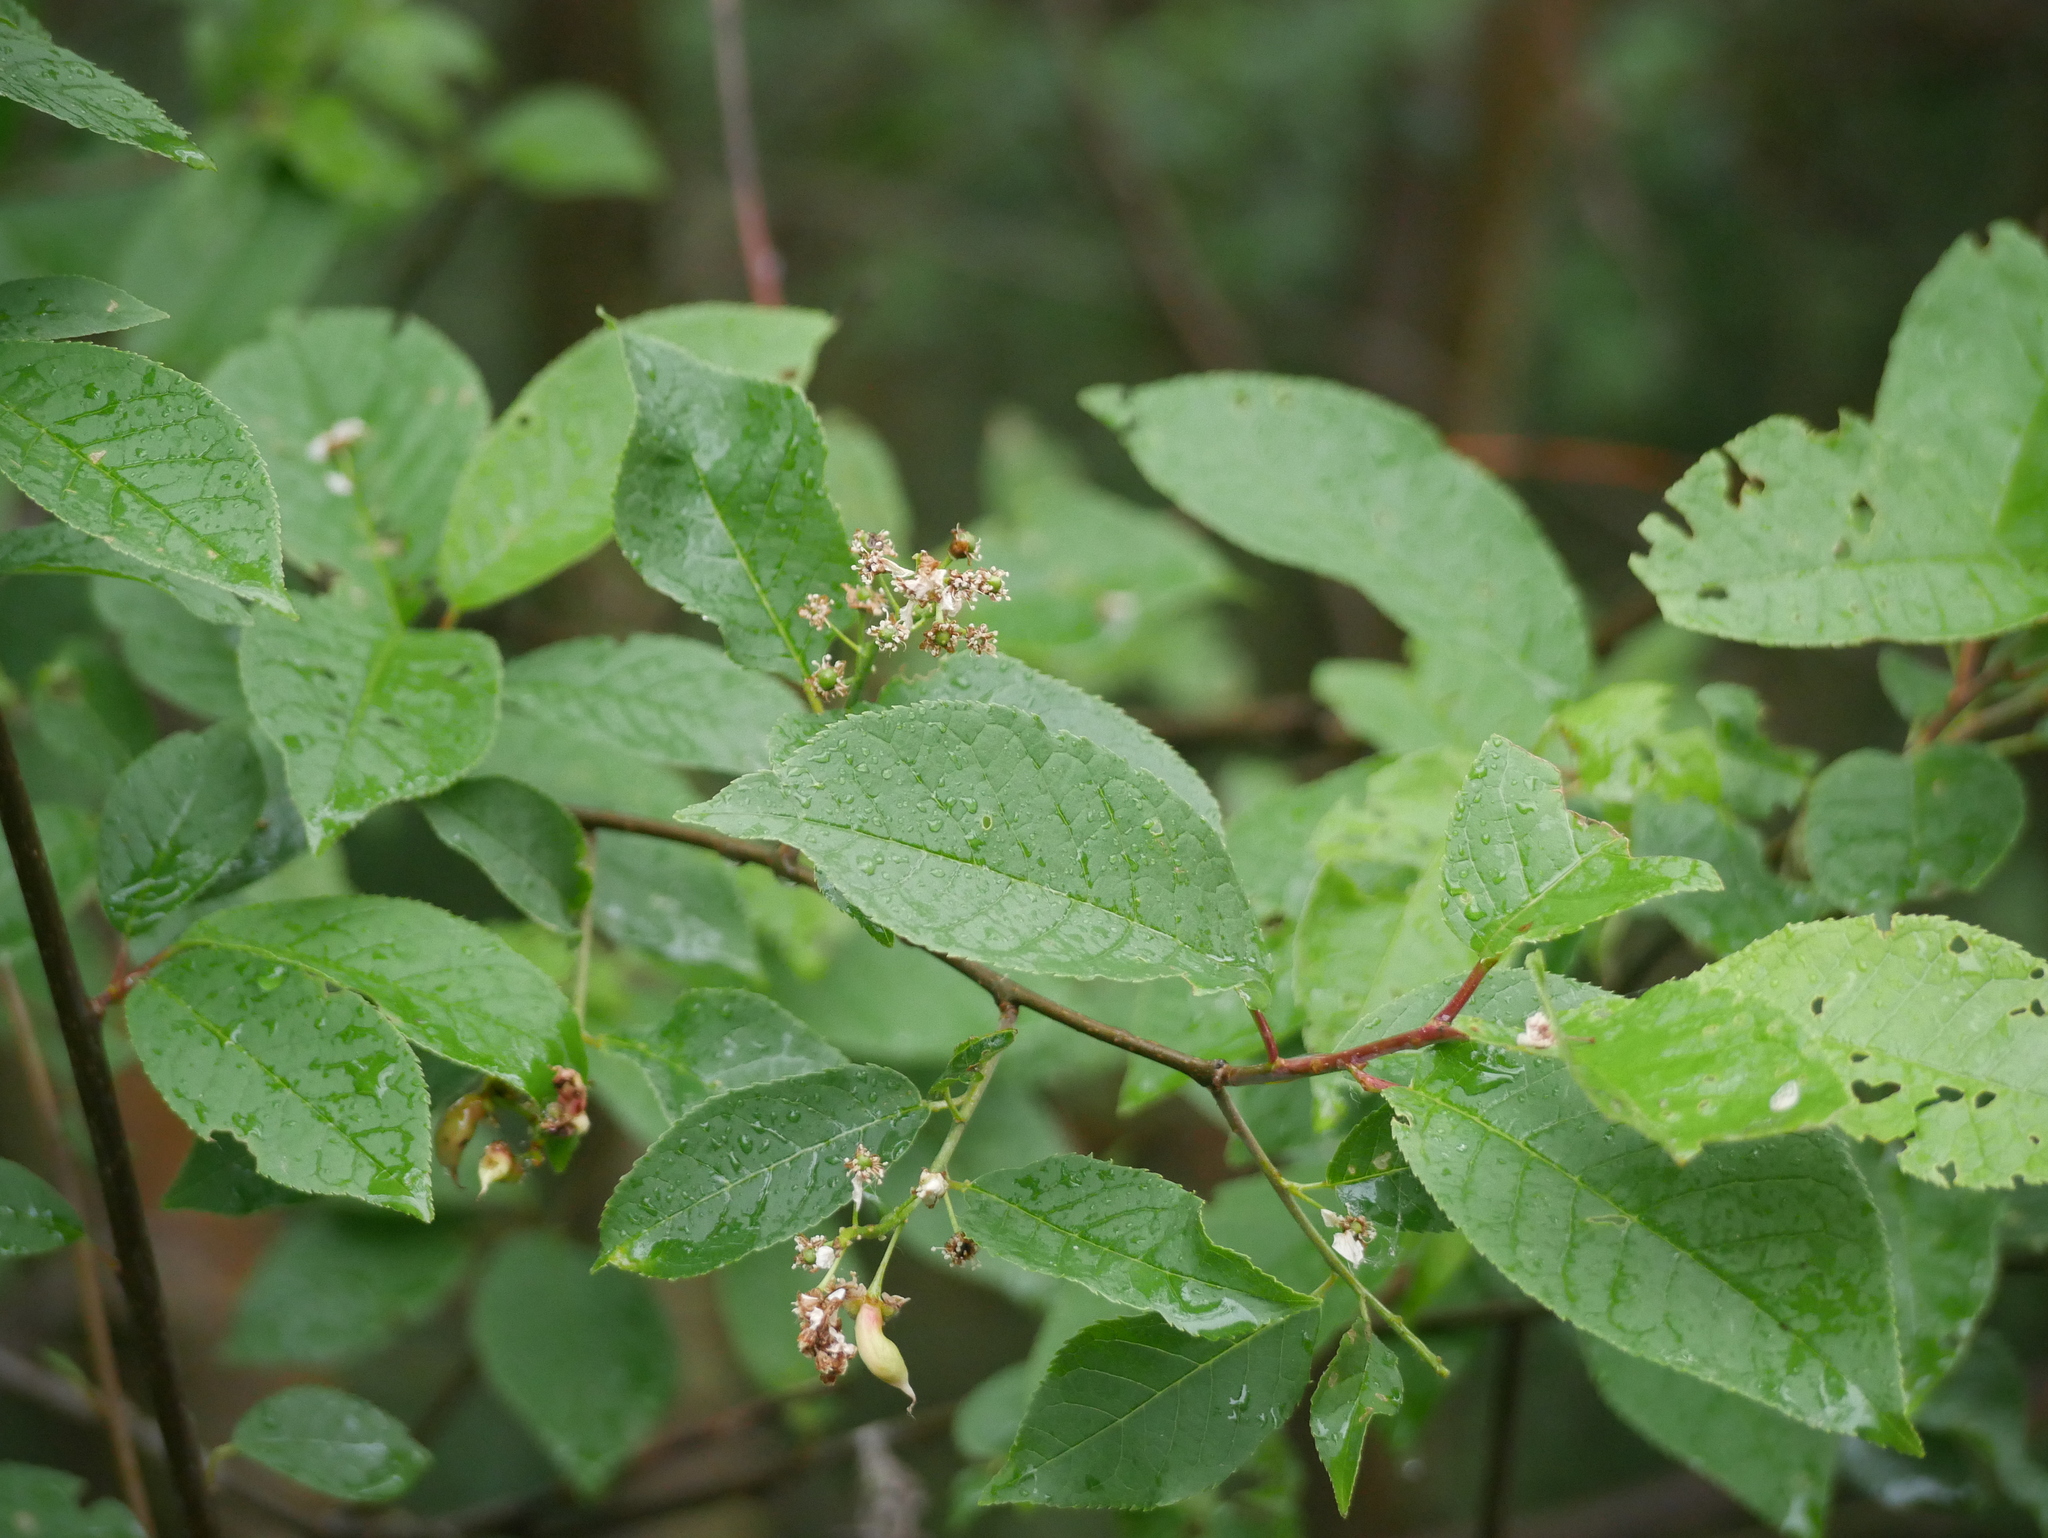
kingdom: Plantae
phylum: Tracheophyta
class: Magnoliopsida
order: Rosales
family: Rosaceae
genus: Prunus
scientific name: Prunus padus
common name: Bird cherry
